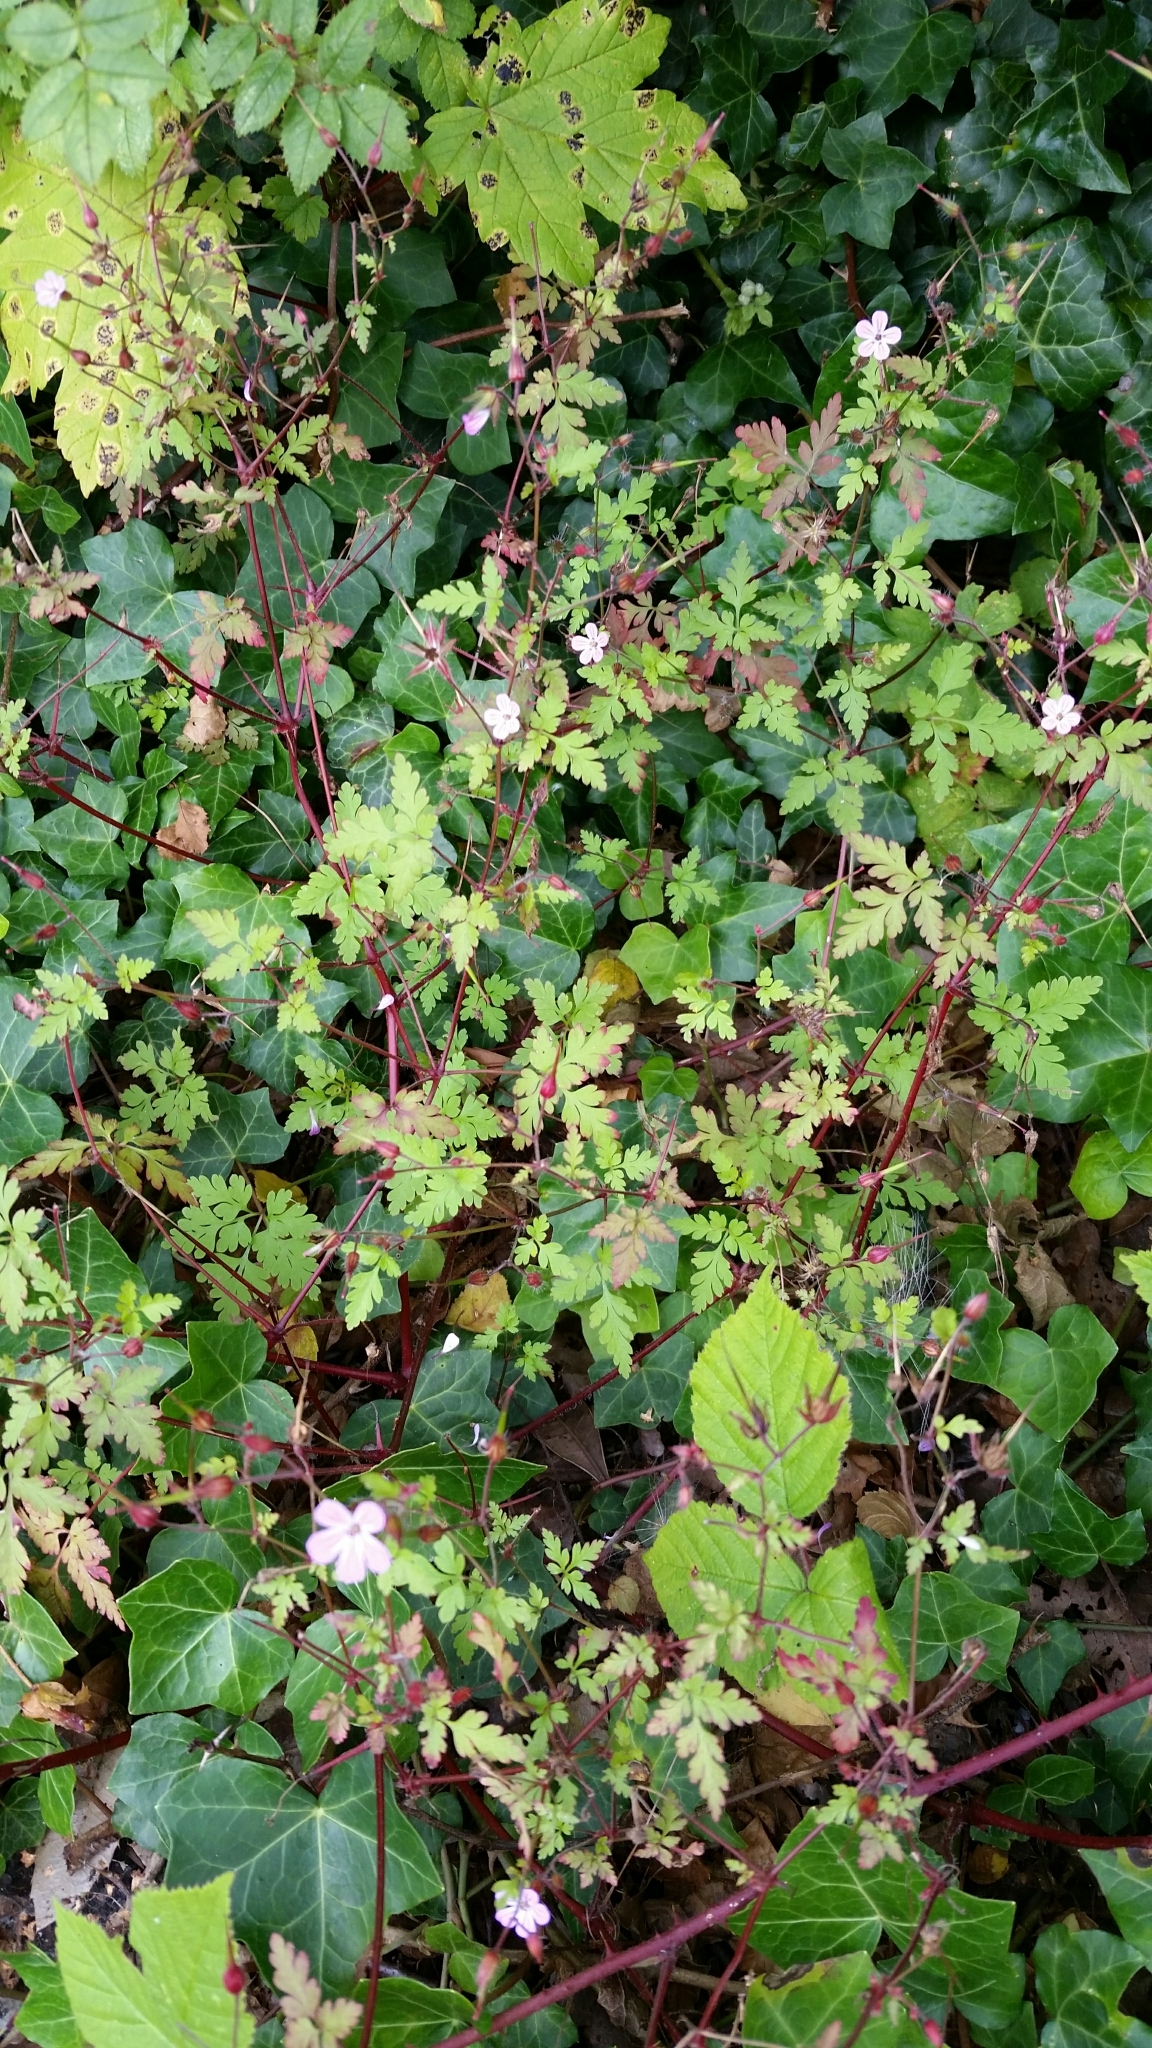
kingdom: Plantae
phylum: Tracheophyta
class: Magnoliopsida
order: Geraniales
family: Geraniaceae
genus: Geranium
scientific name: Geranium robertianum
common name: Herb-robert
